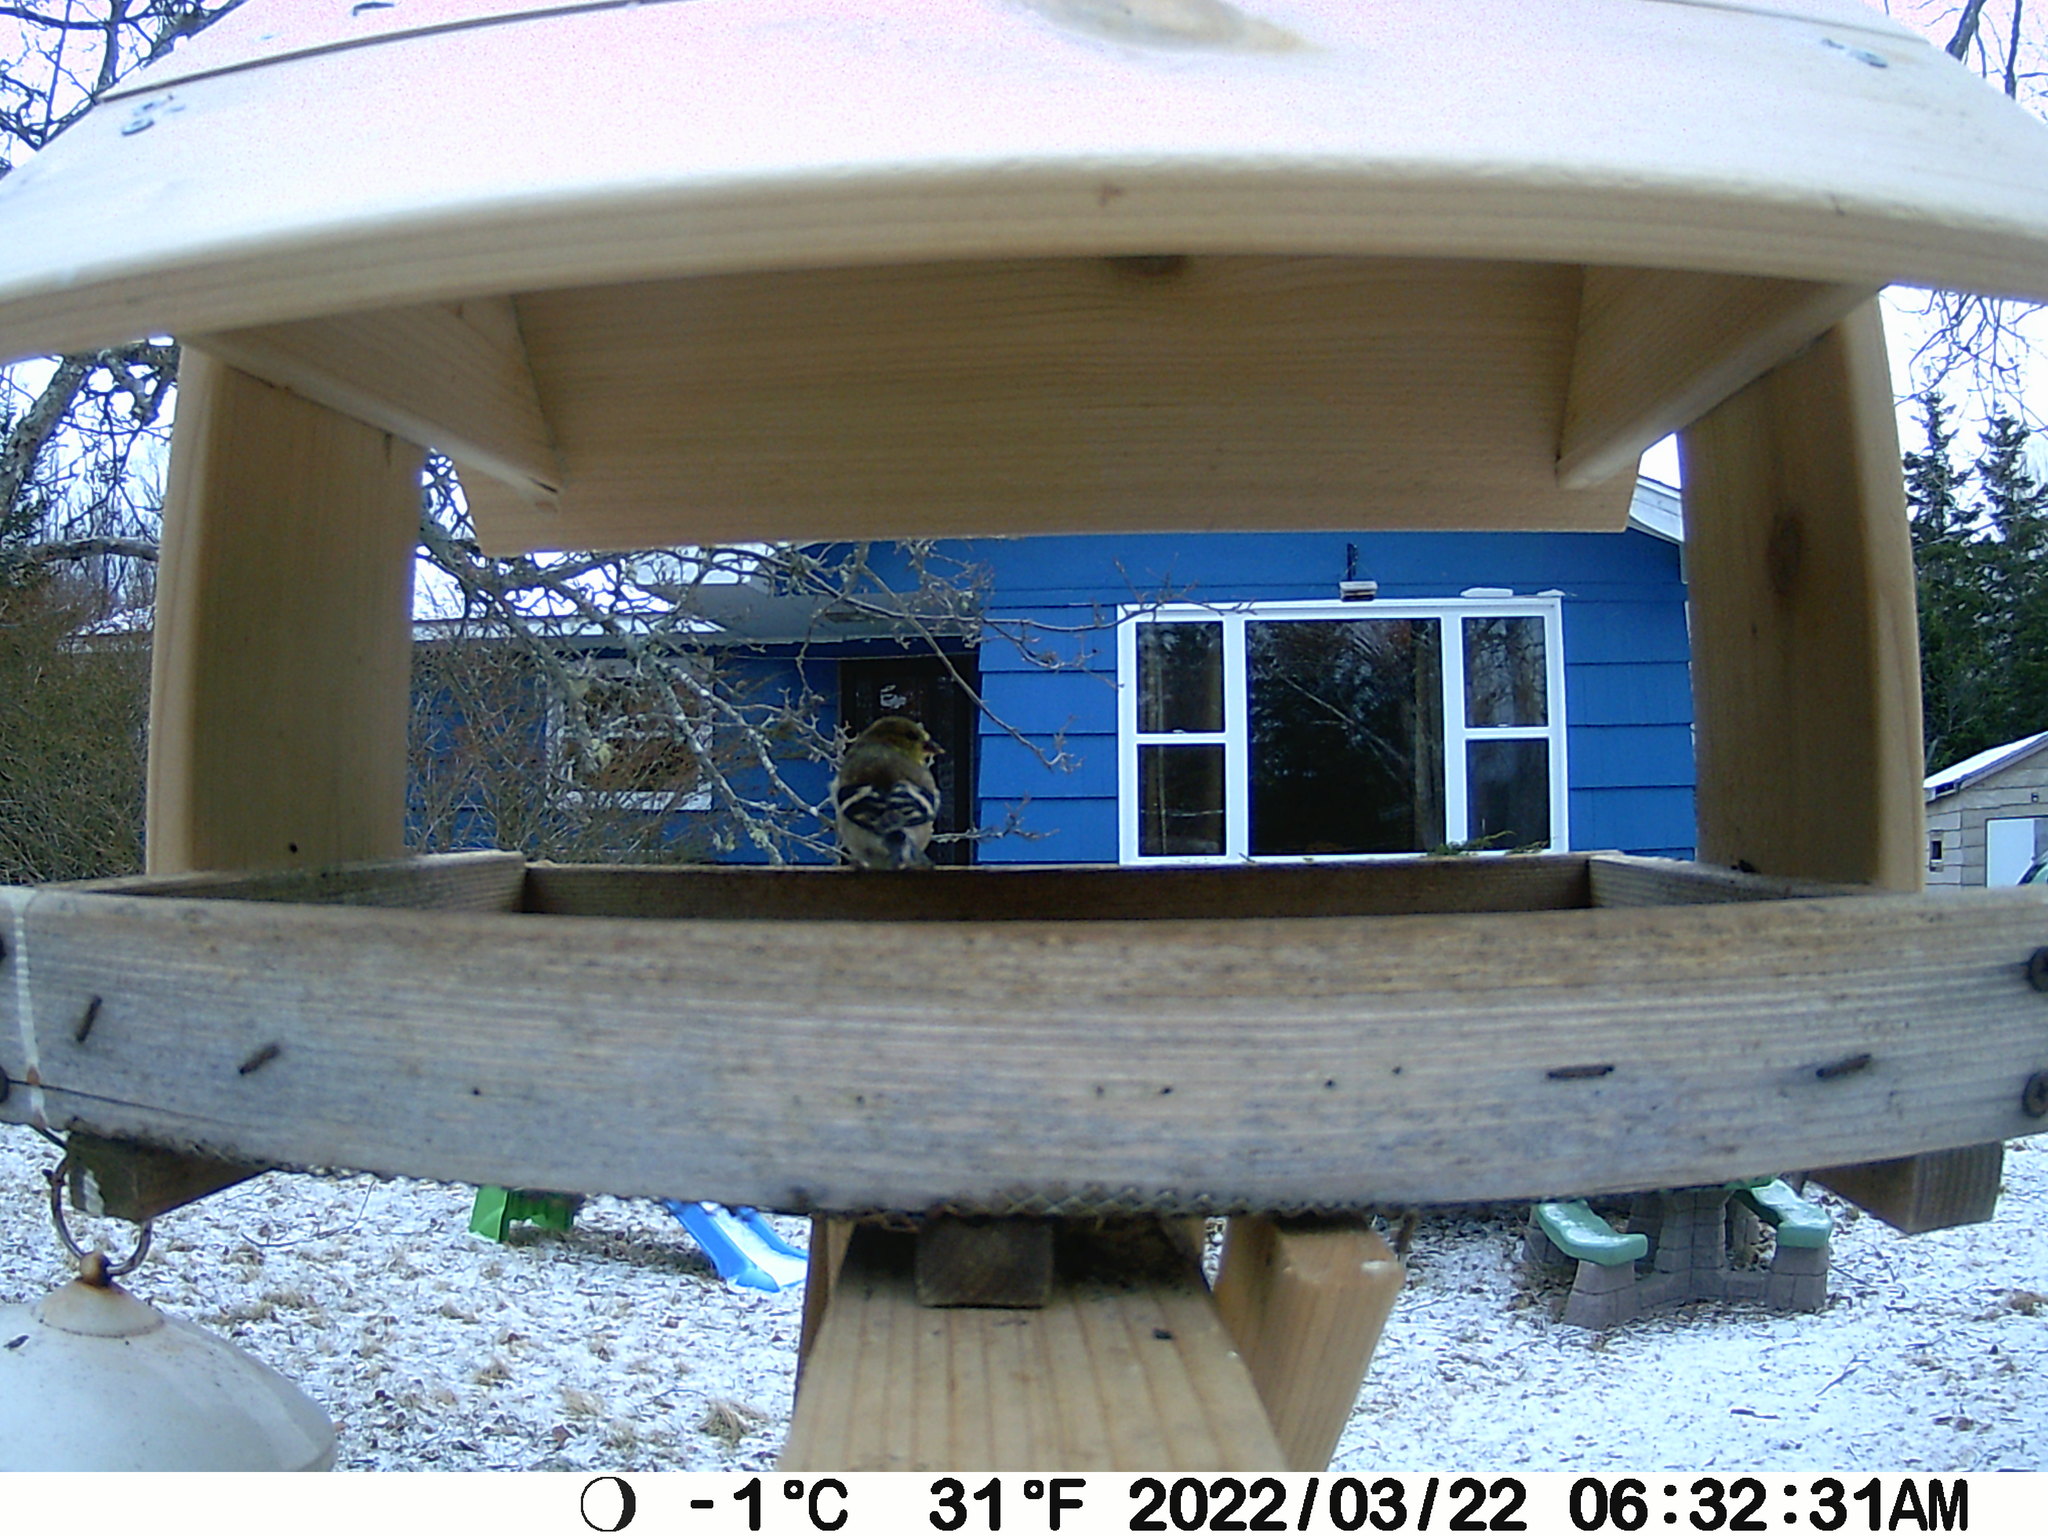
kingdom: Animalia
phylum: Chordata
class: Aves
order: Passeriformes
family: Fringillidae
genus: Spinus
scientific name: Spinus tristis
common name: American goldfinch
